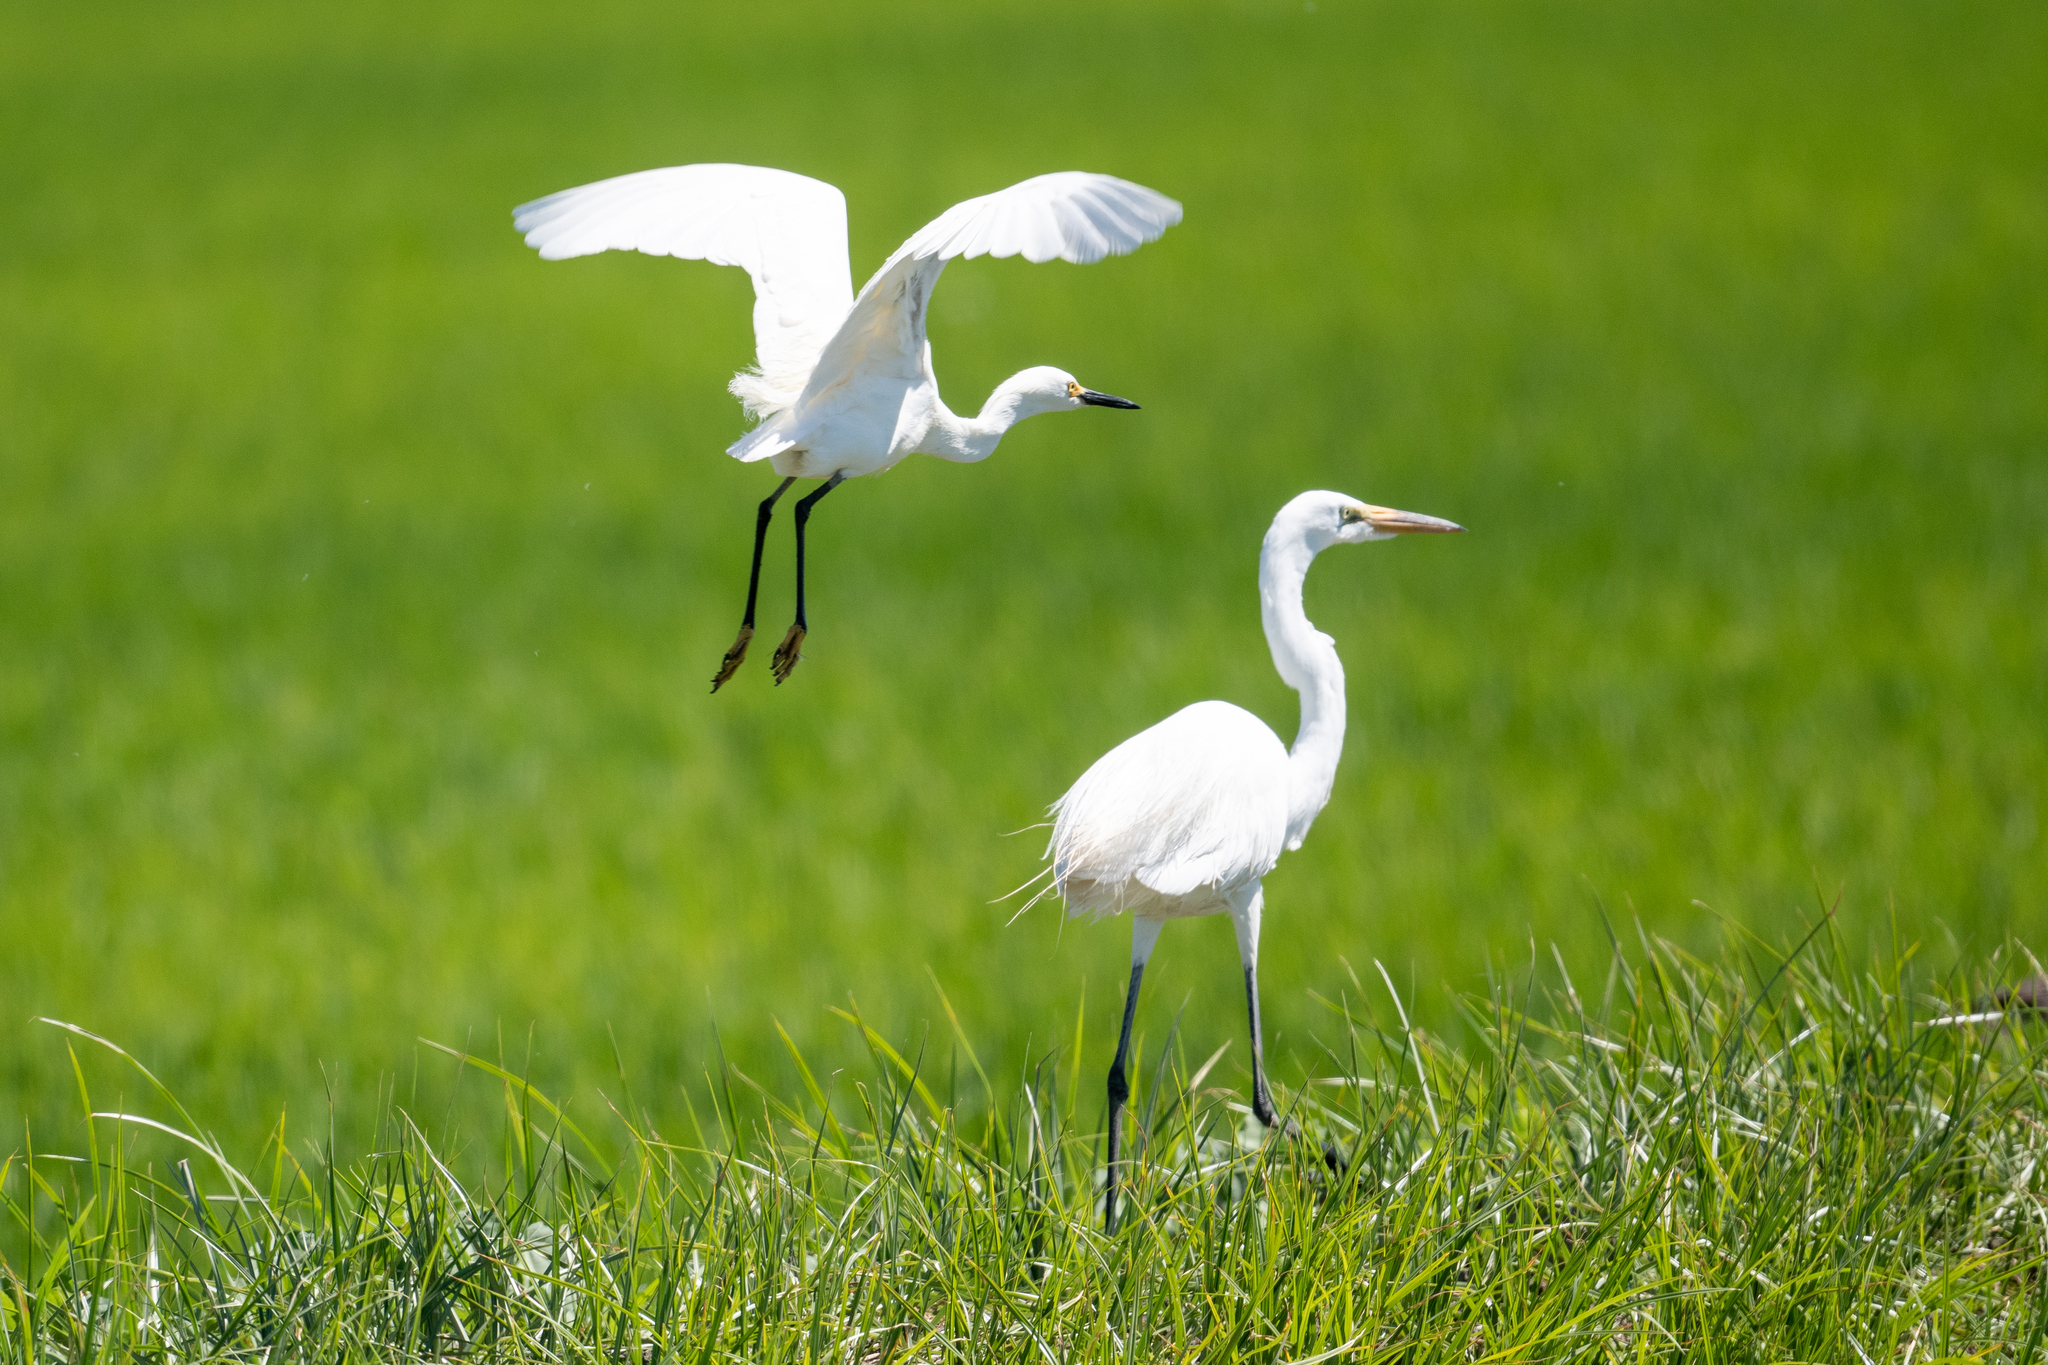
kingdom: Animalia
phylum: Chordata
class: Aves
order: Pelecaniformes
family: Ardeidae
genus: Egretta
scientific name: Egretta thula
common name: Snowy egret
